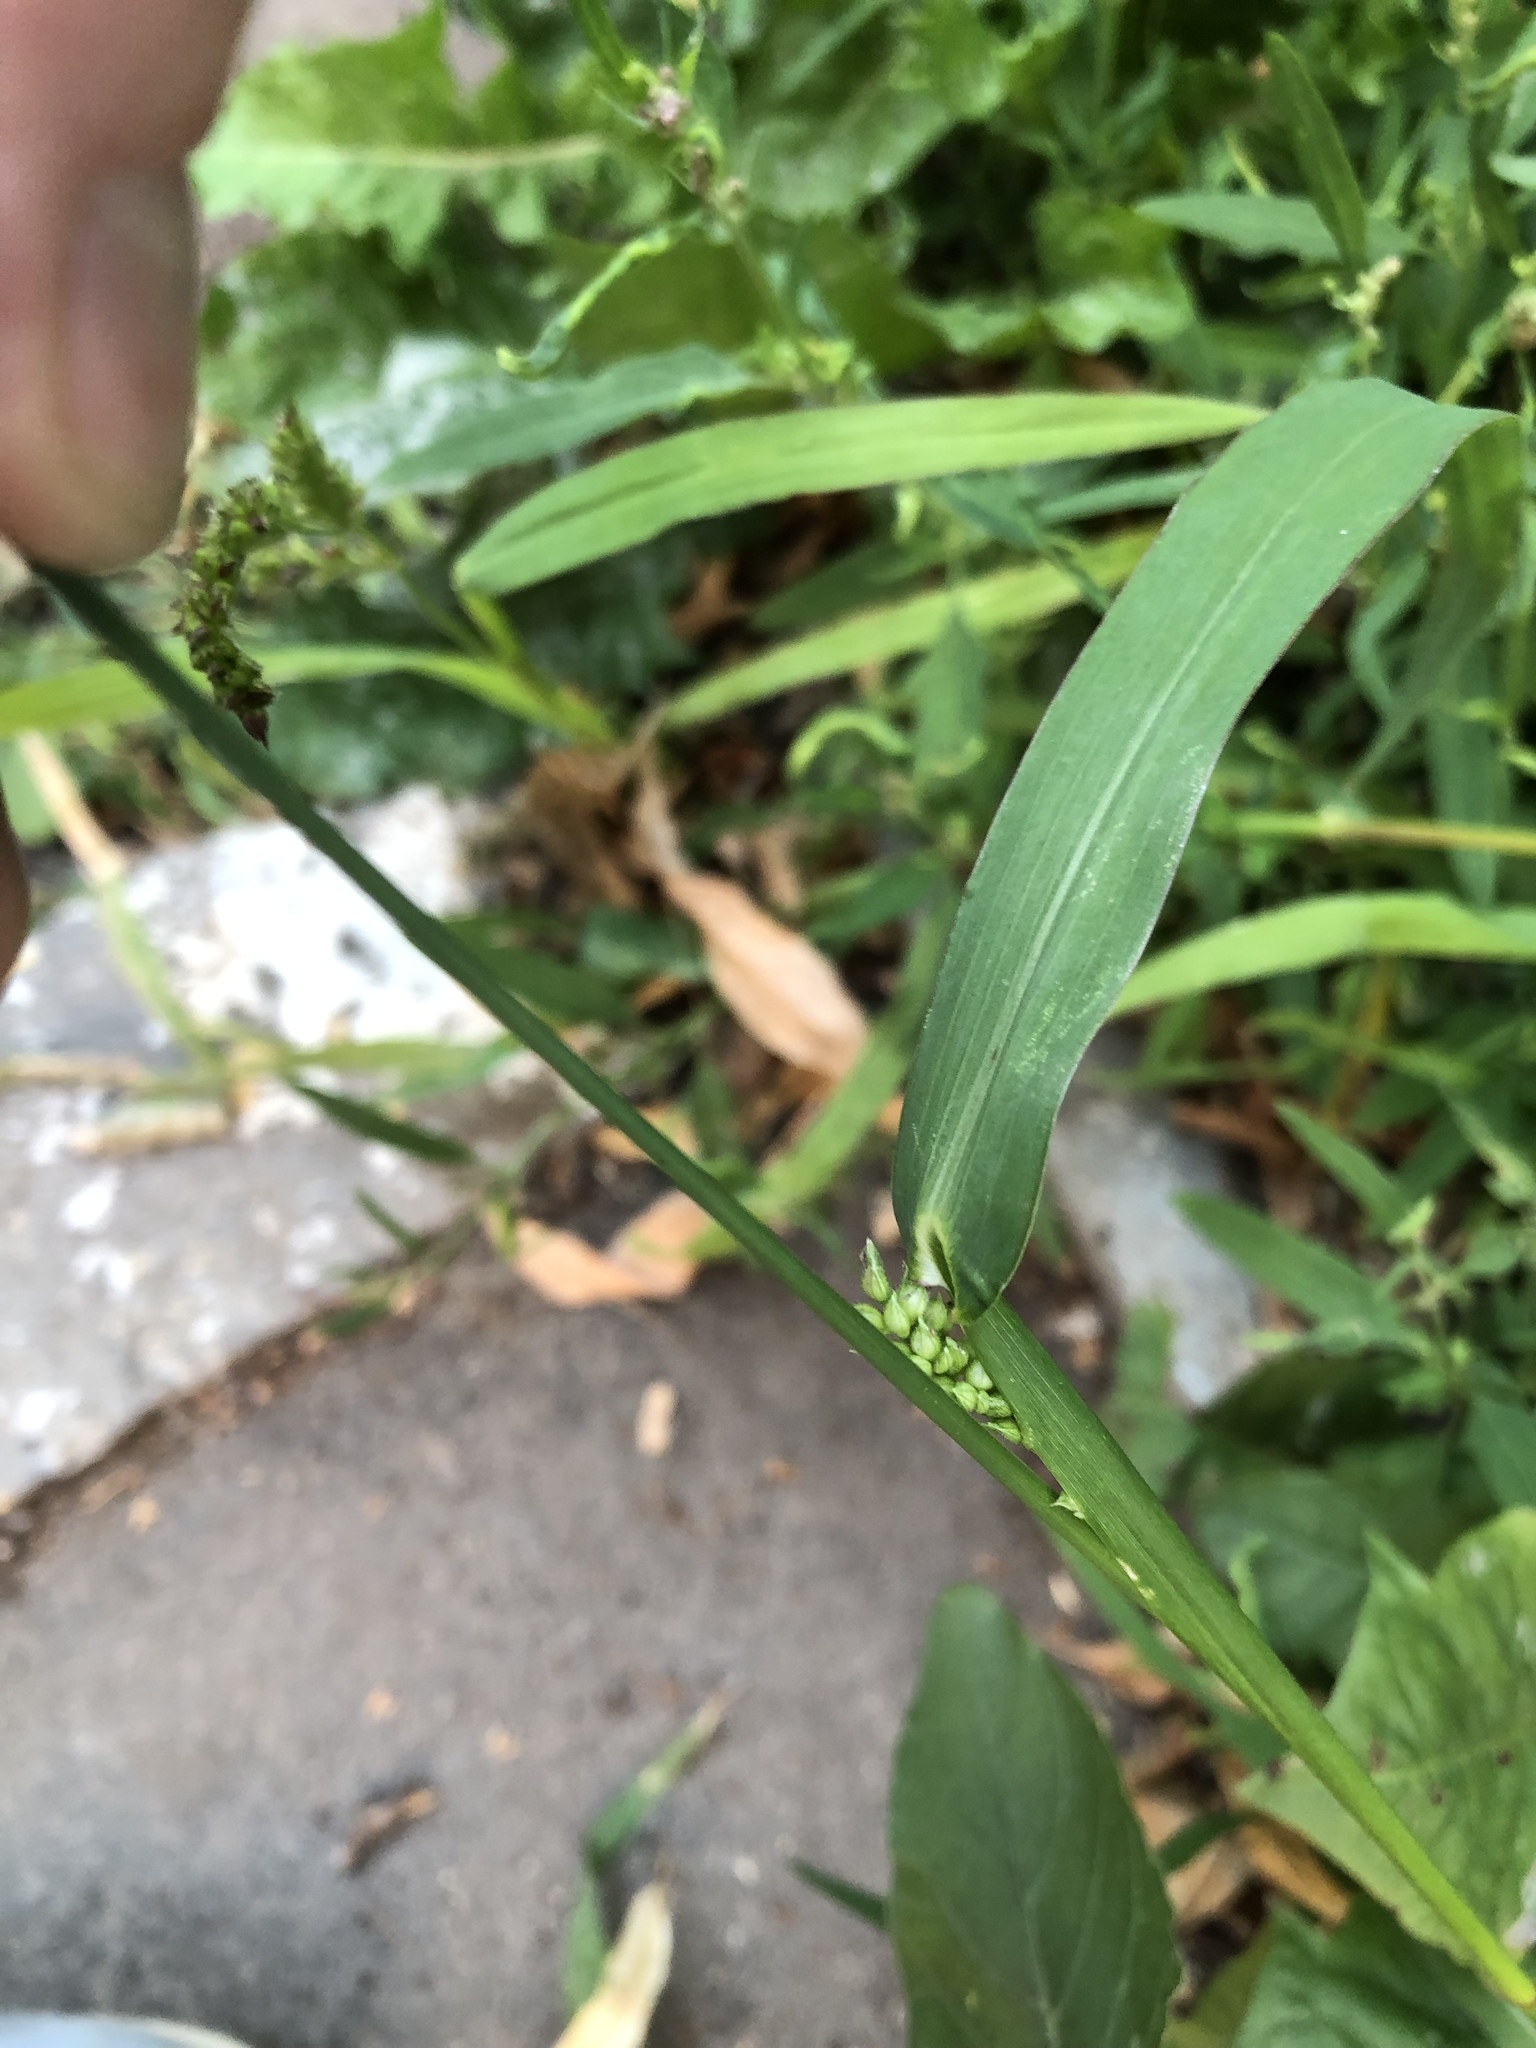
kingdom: Plantae
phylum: Tracheophyta
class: Liliopsida
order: Poales
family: Poaceae
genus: Echinochloa
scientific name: Echinochloa crus-galli
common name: Cockspur
